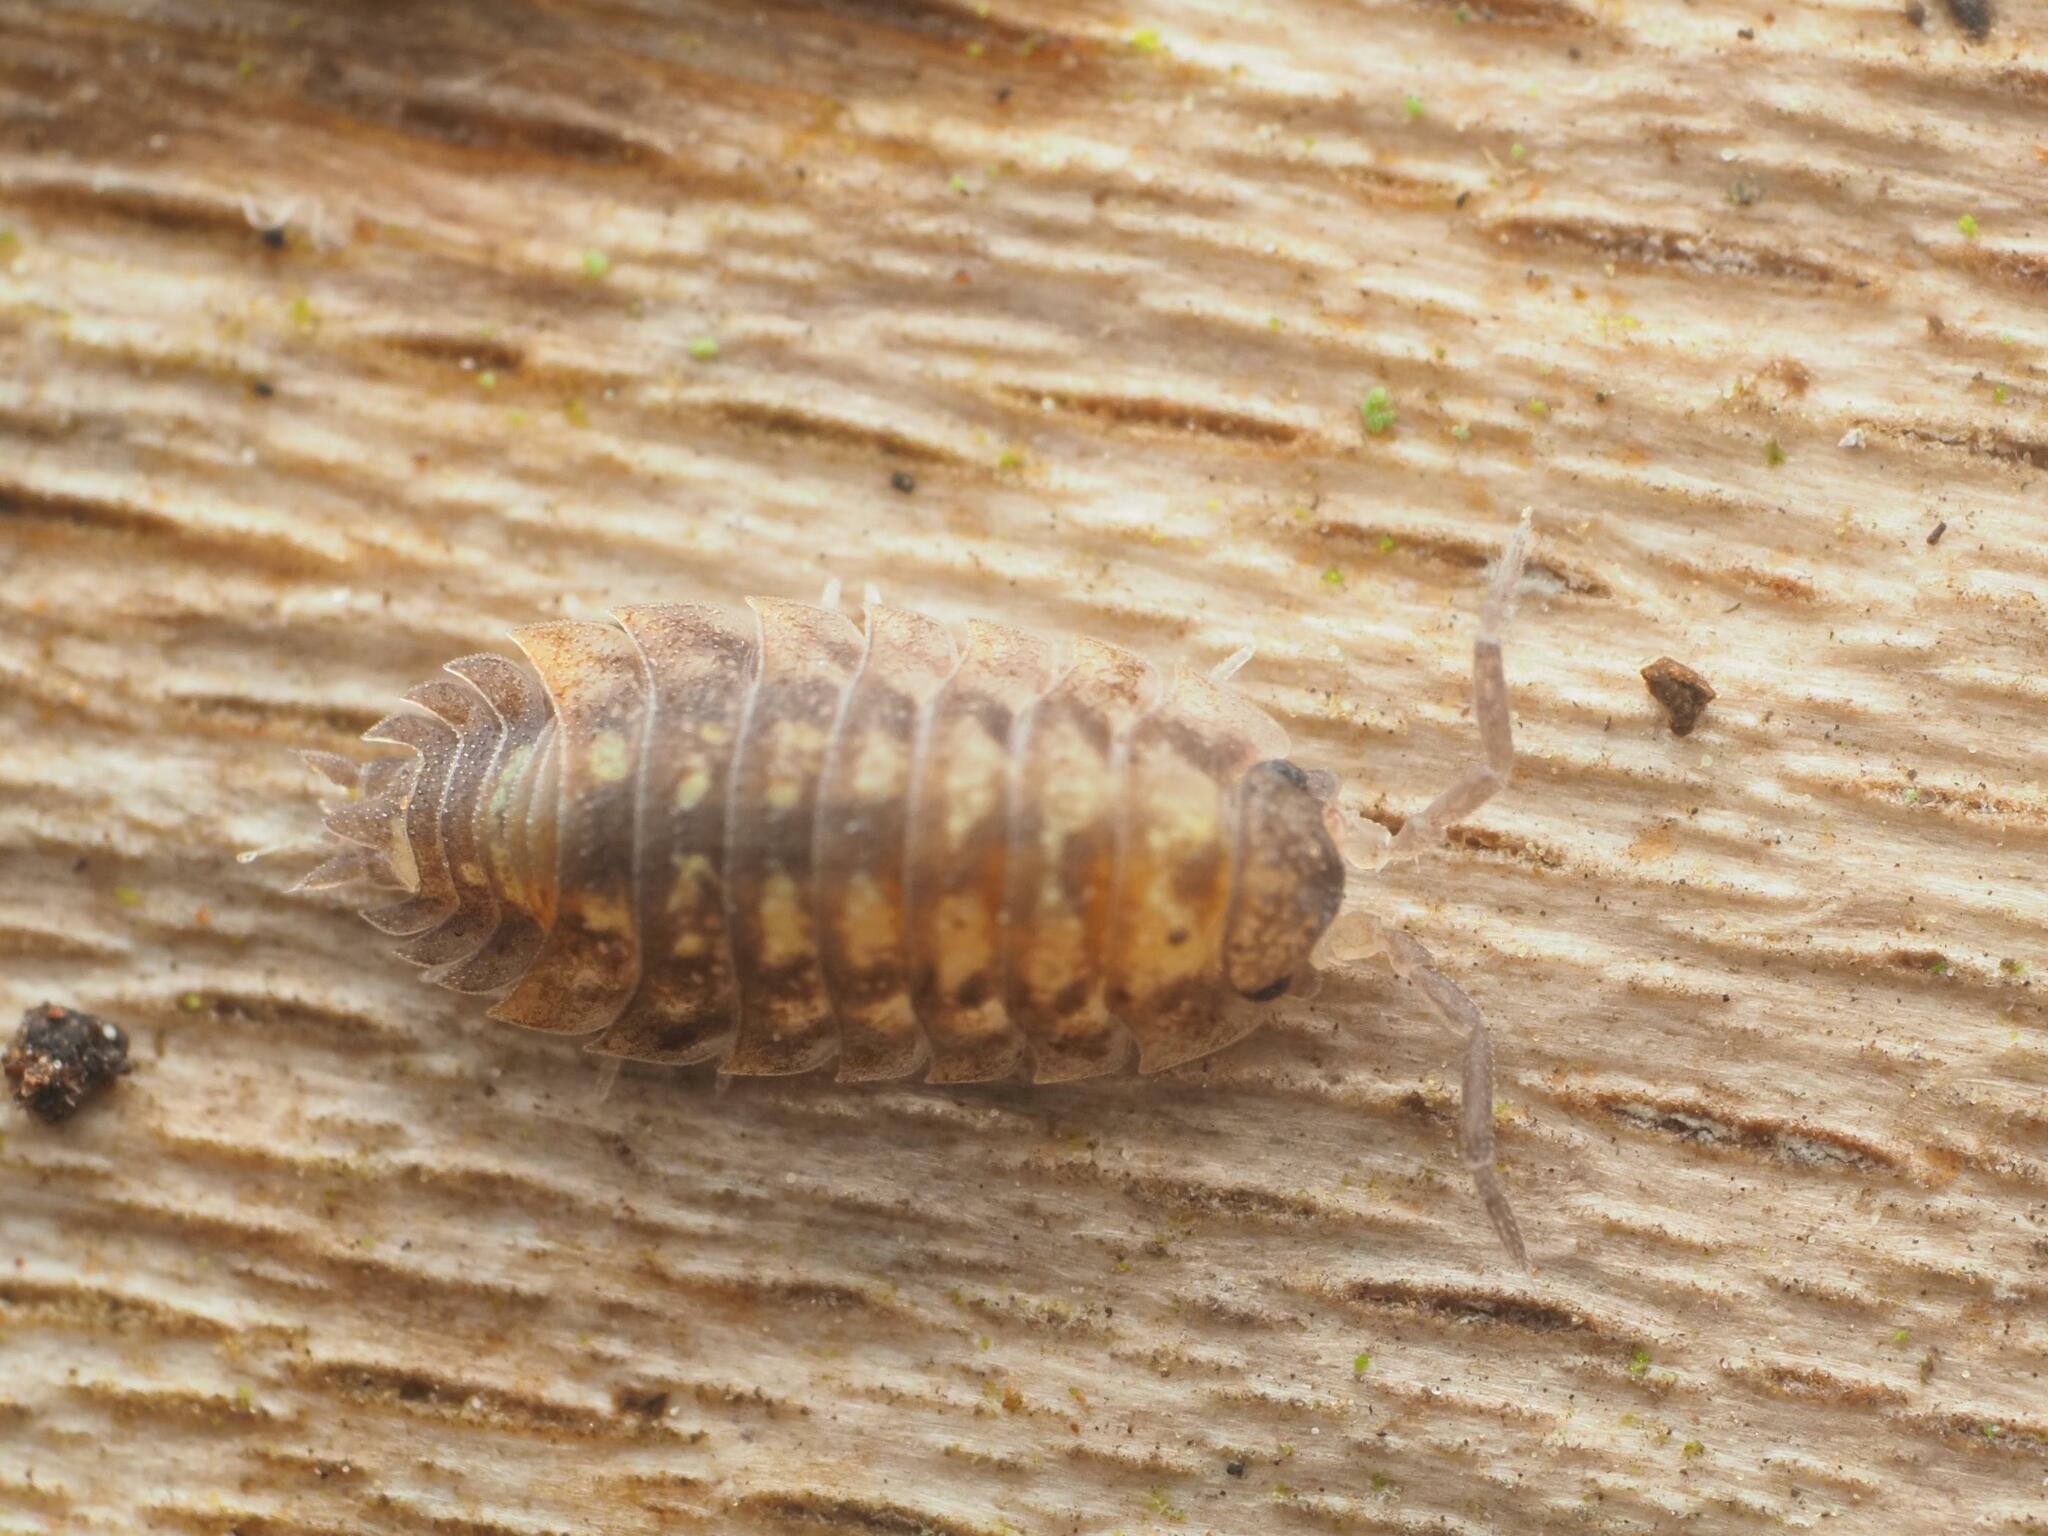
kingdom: Animalia
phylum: Arthropoda
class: Malacostraca
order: Isopoda
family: Oniscidae
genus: Oniscus
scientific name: Oniscus asellus
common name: Common shiny woodlouse
